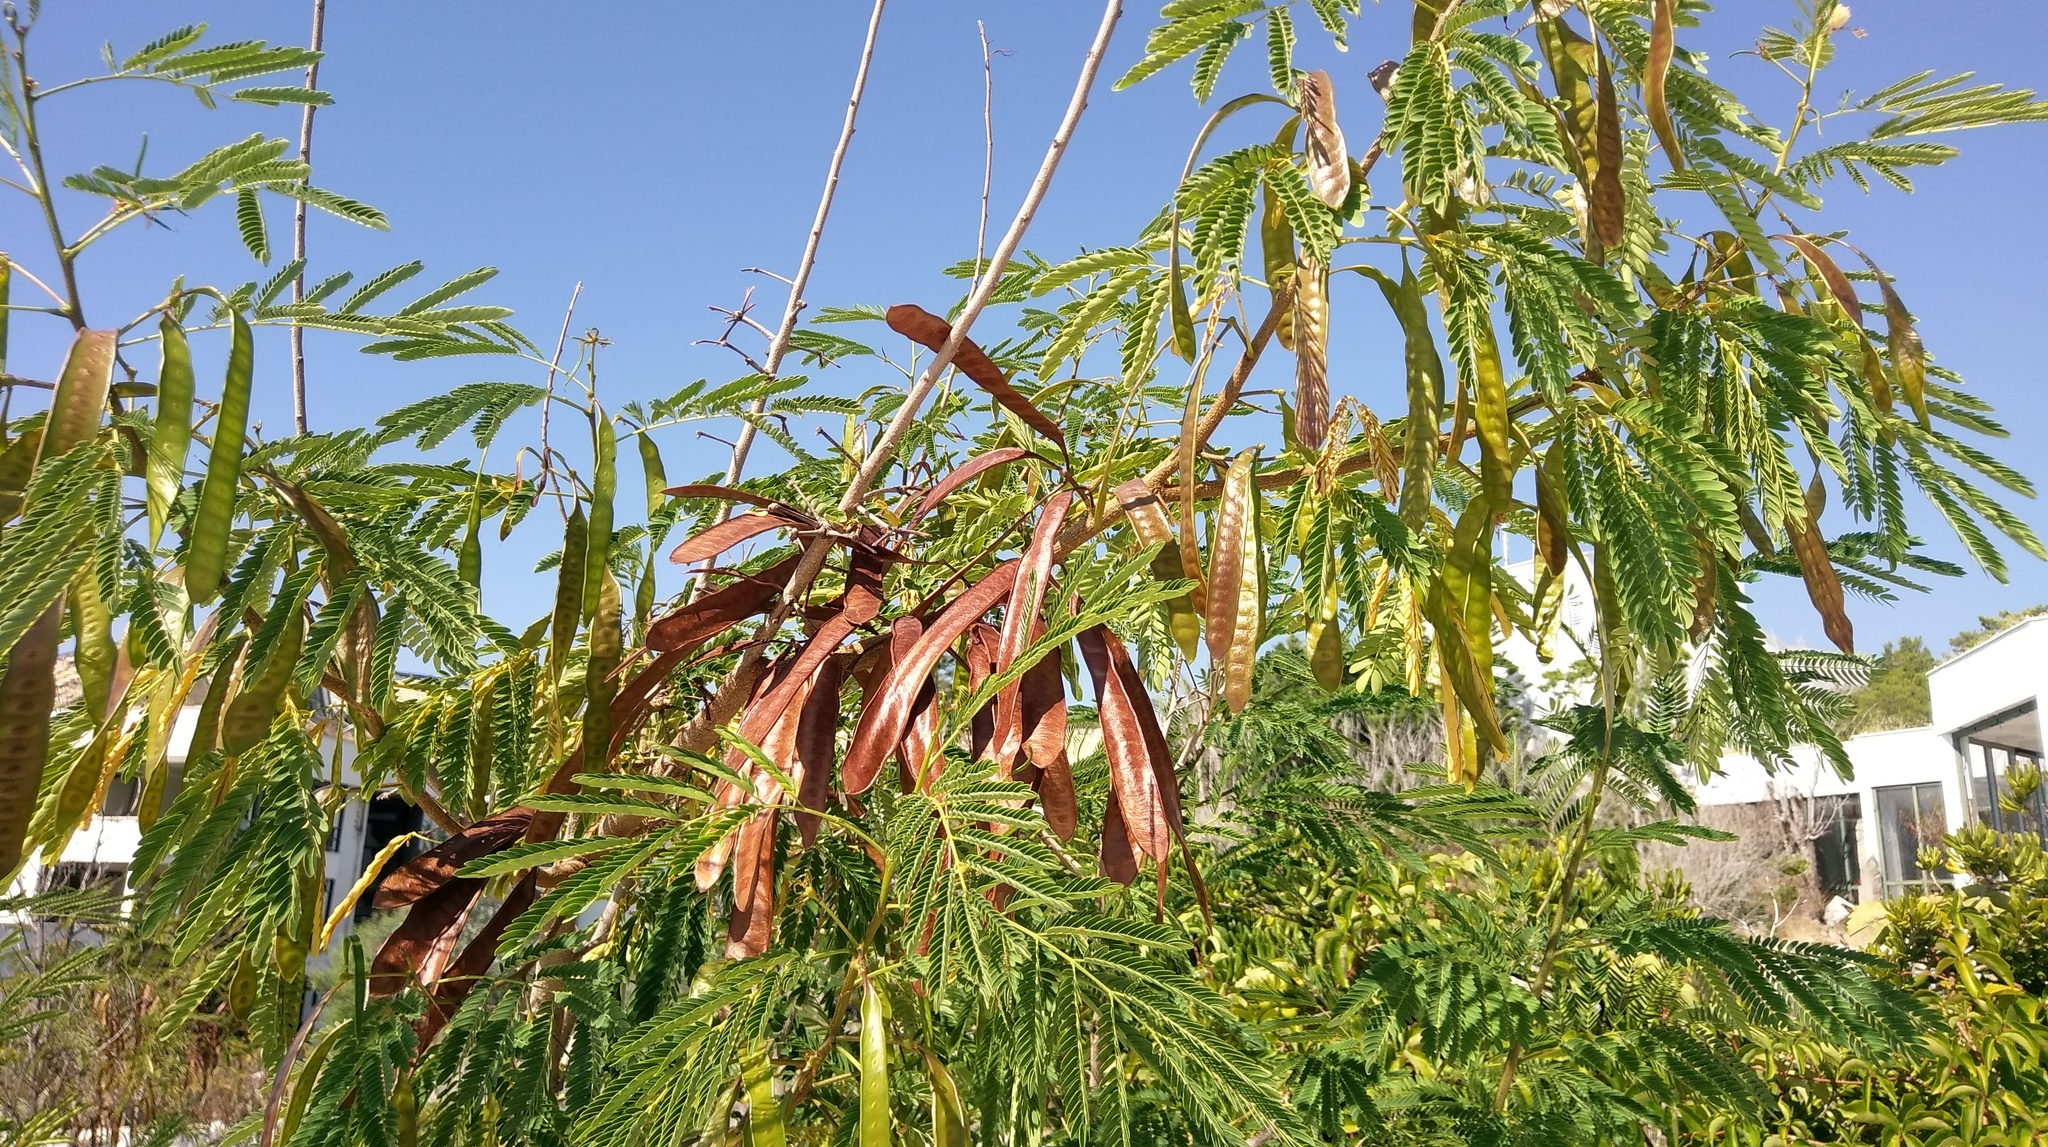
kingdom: Plantae
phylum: Tracheophyta
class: Magnoliopsida
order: Fabales
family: Fabaceae
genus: Leucaena
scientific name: Leucaena leucocephala
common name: White leadtree
